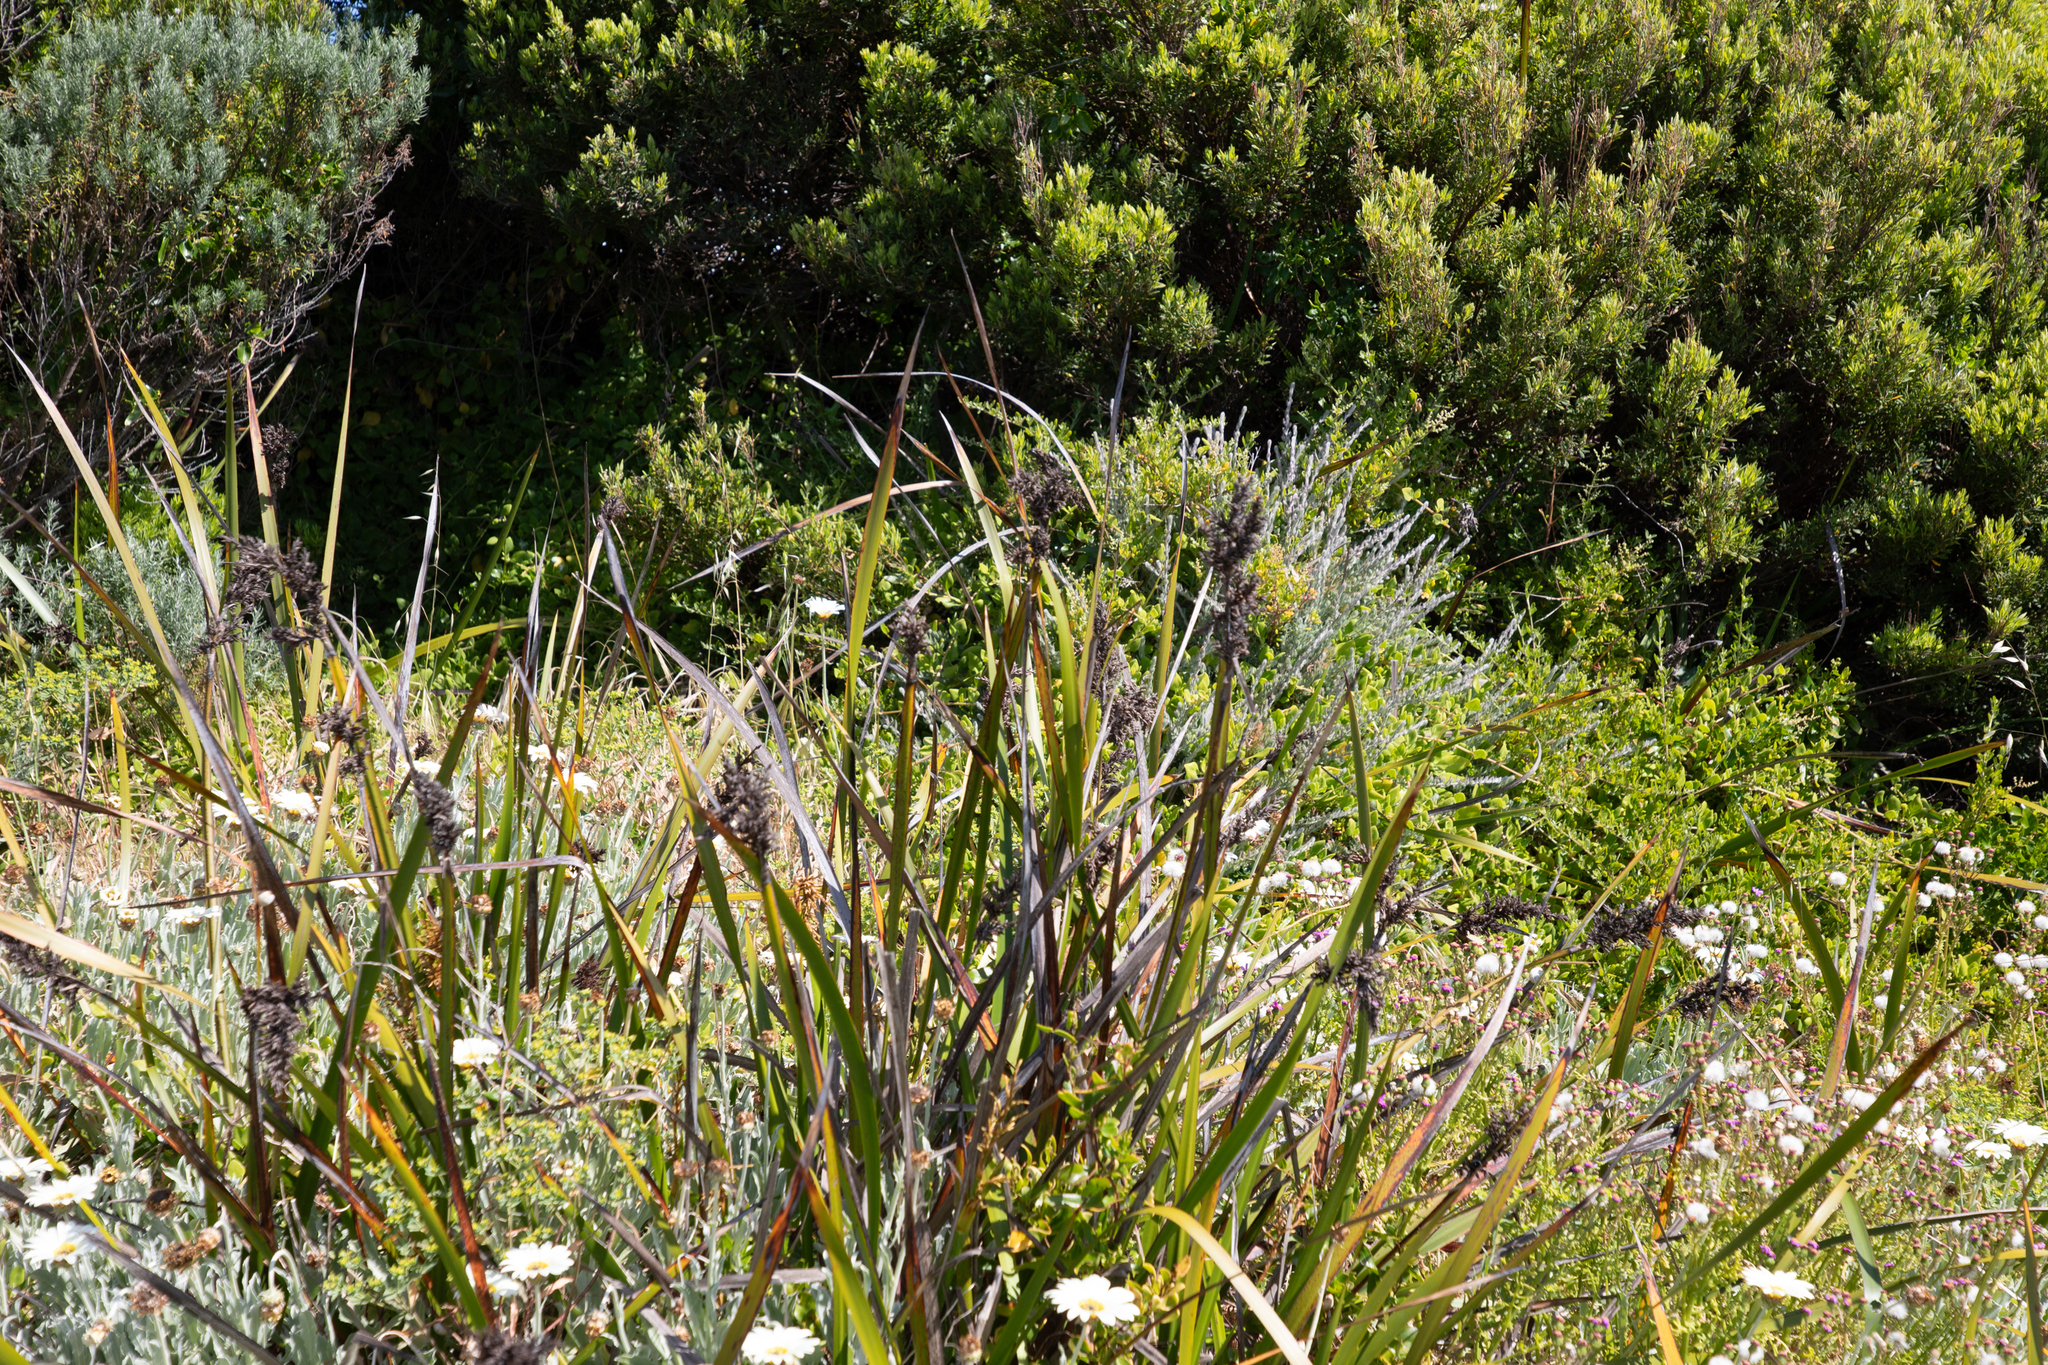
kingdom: Plantae
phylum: Tracheophyta
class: Liliopsida
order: Poales
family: Cyperaceae
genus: Lepidosperma
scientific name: Lepidosperma gladiatum
